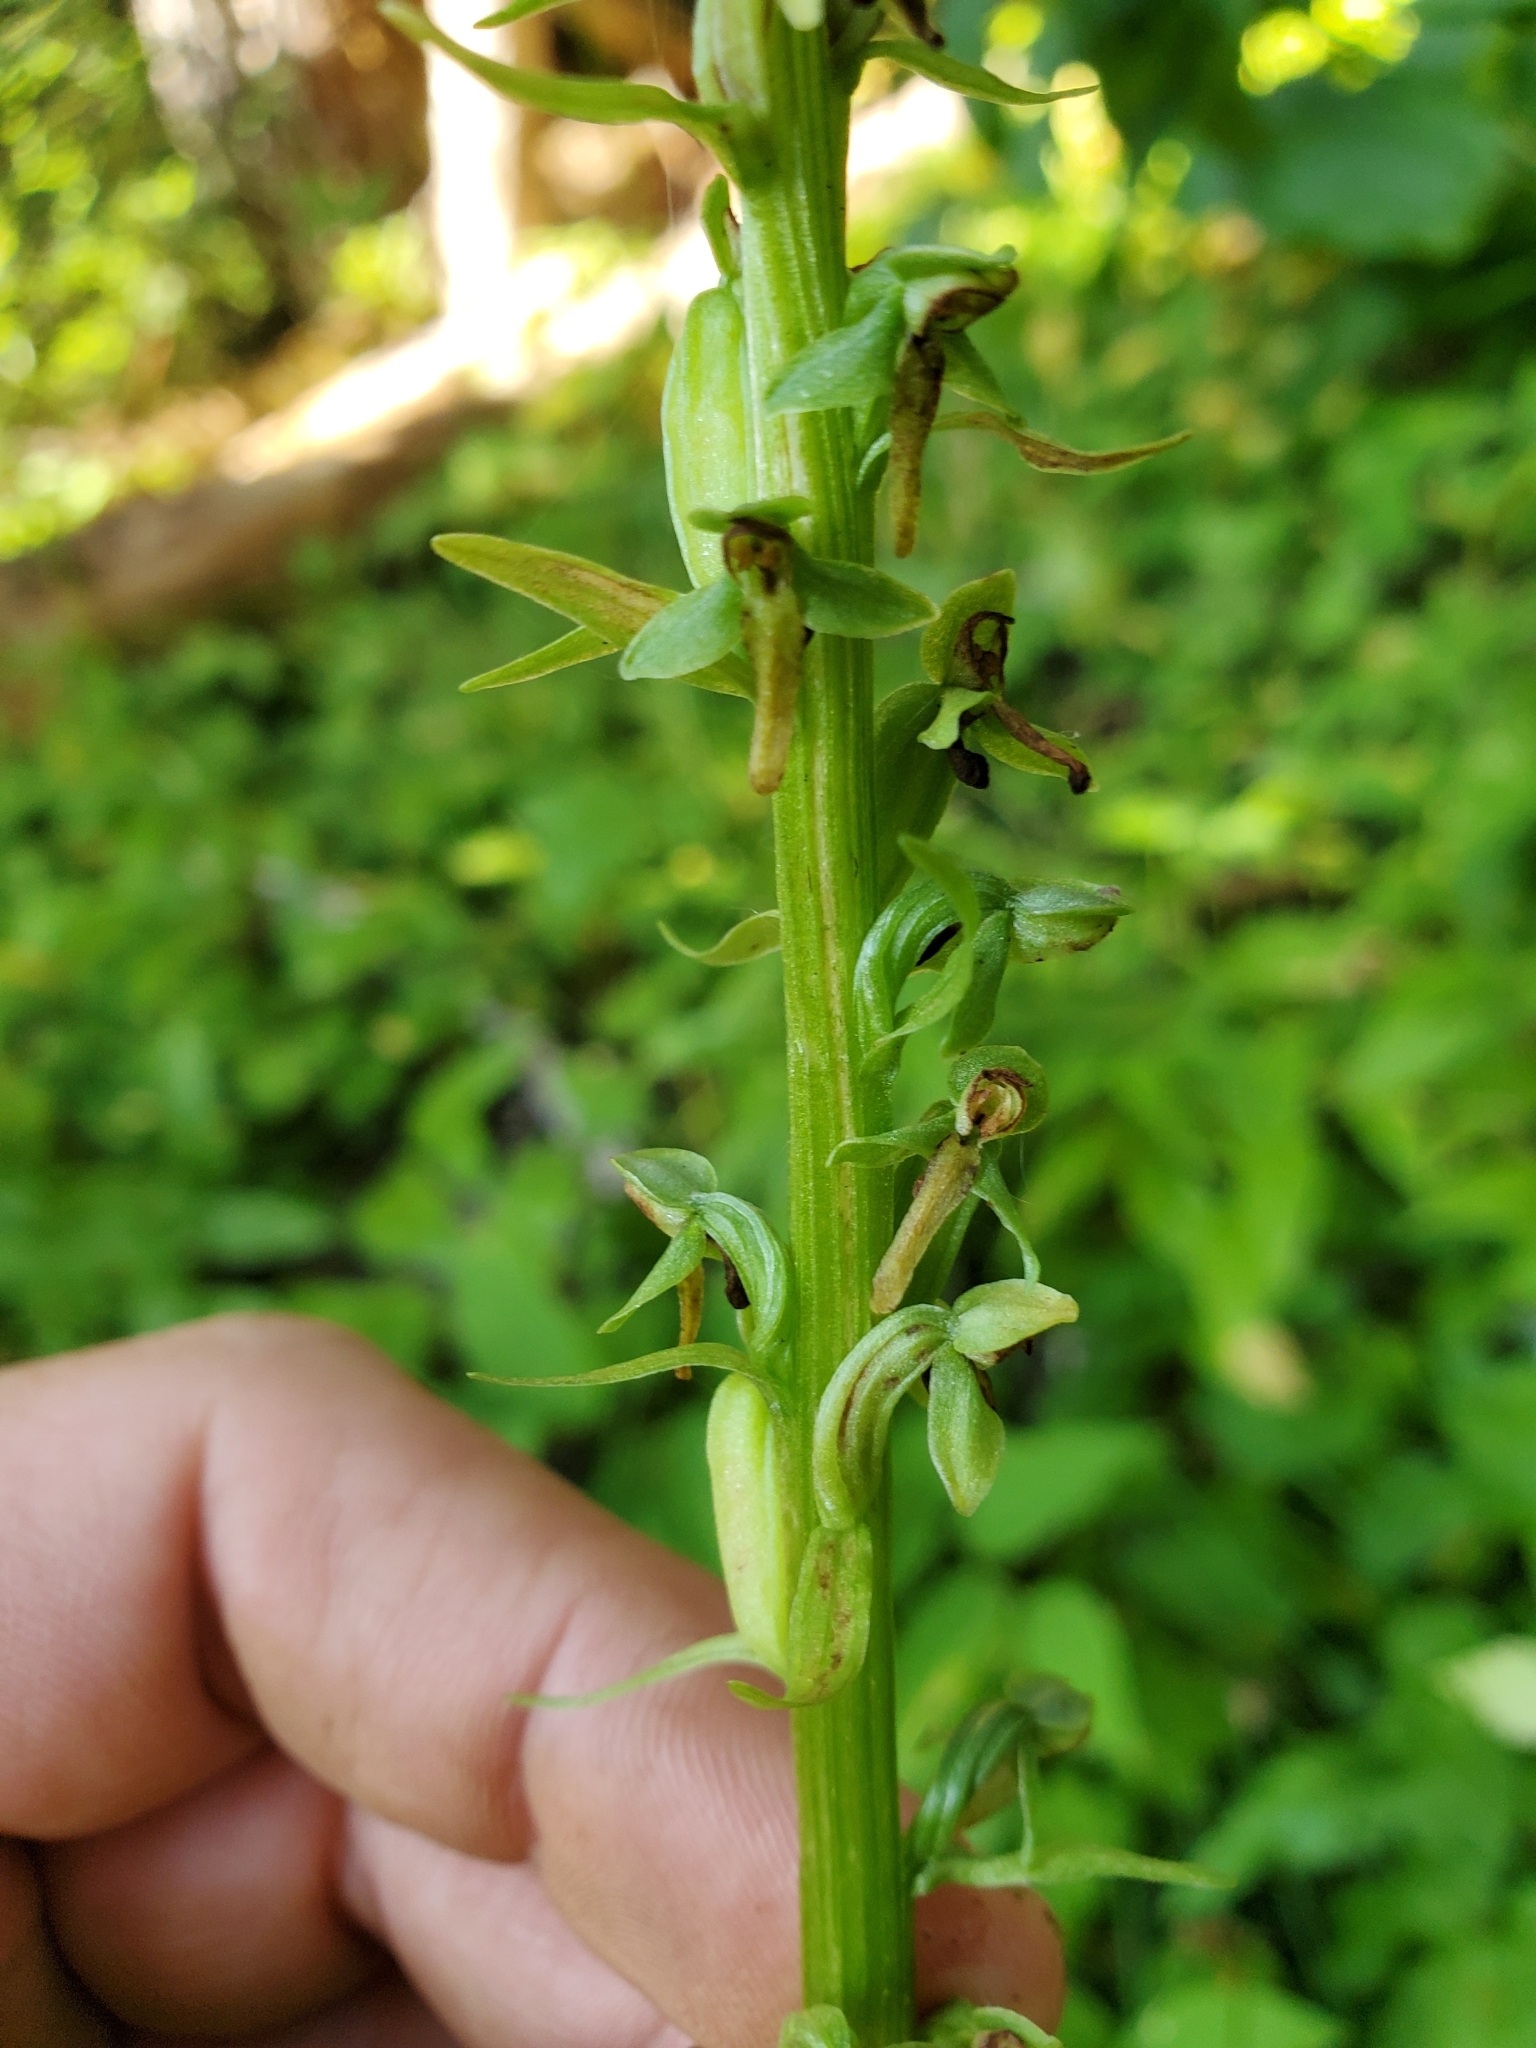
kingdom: Plantae
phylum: Tracheophyta
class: Liliopsida
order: Asparagales
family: Orchidaceae
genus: Platanthera
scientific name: Platanthera stricta
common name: Slender bog orchid
